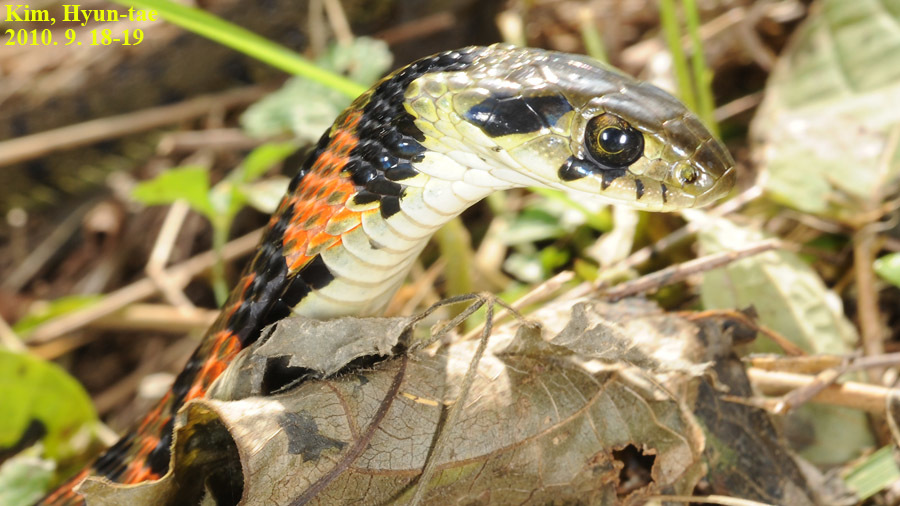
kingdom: Animalia
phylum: Chordata
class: Squamata
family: Colubridae
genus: Rhabdophis
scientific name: Rhabdophis tigrinus
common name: Tiger keelback
